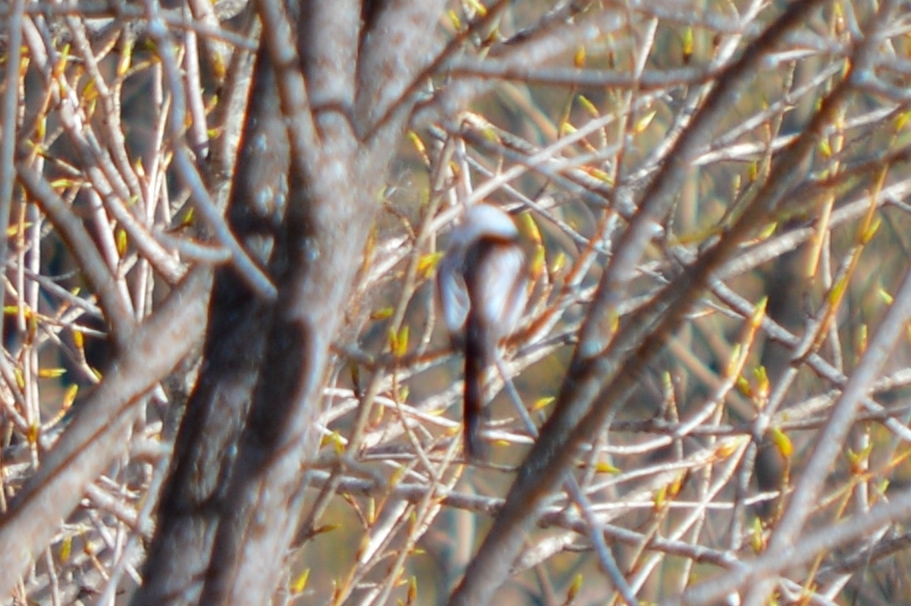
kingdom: Animalia
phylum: Chordata
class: Aves
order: Passeriformes
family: Aegithalidae
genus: Aegithalos
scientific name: Aegithalos caudatus
